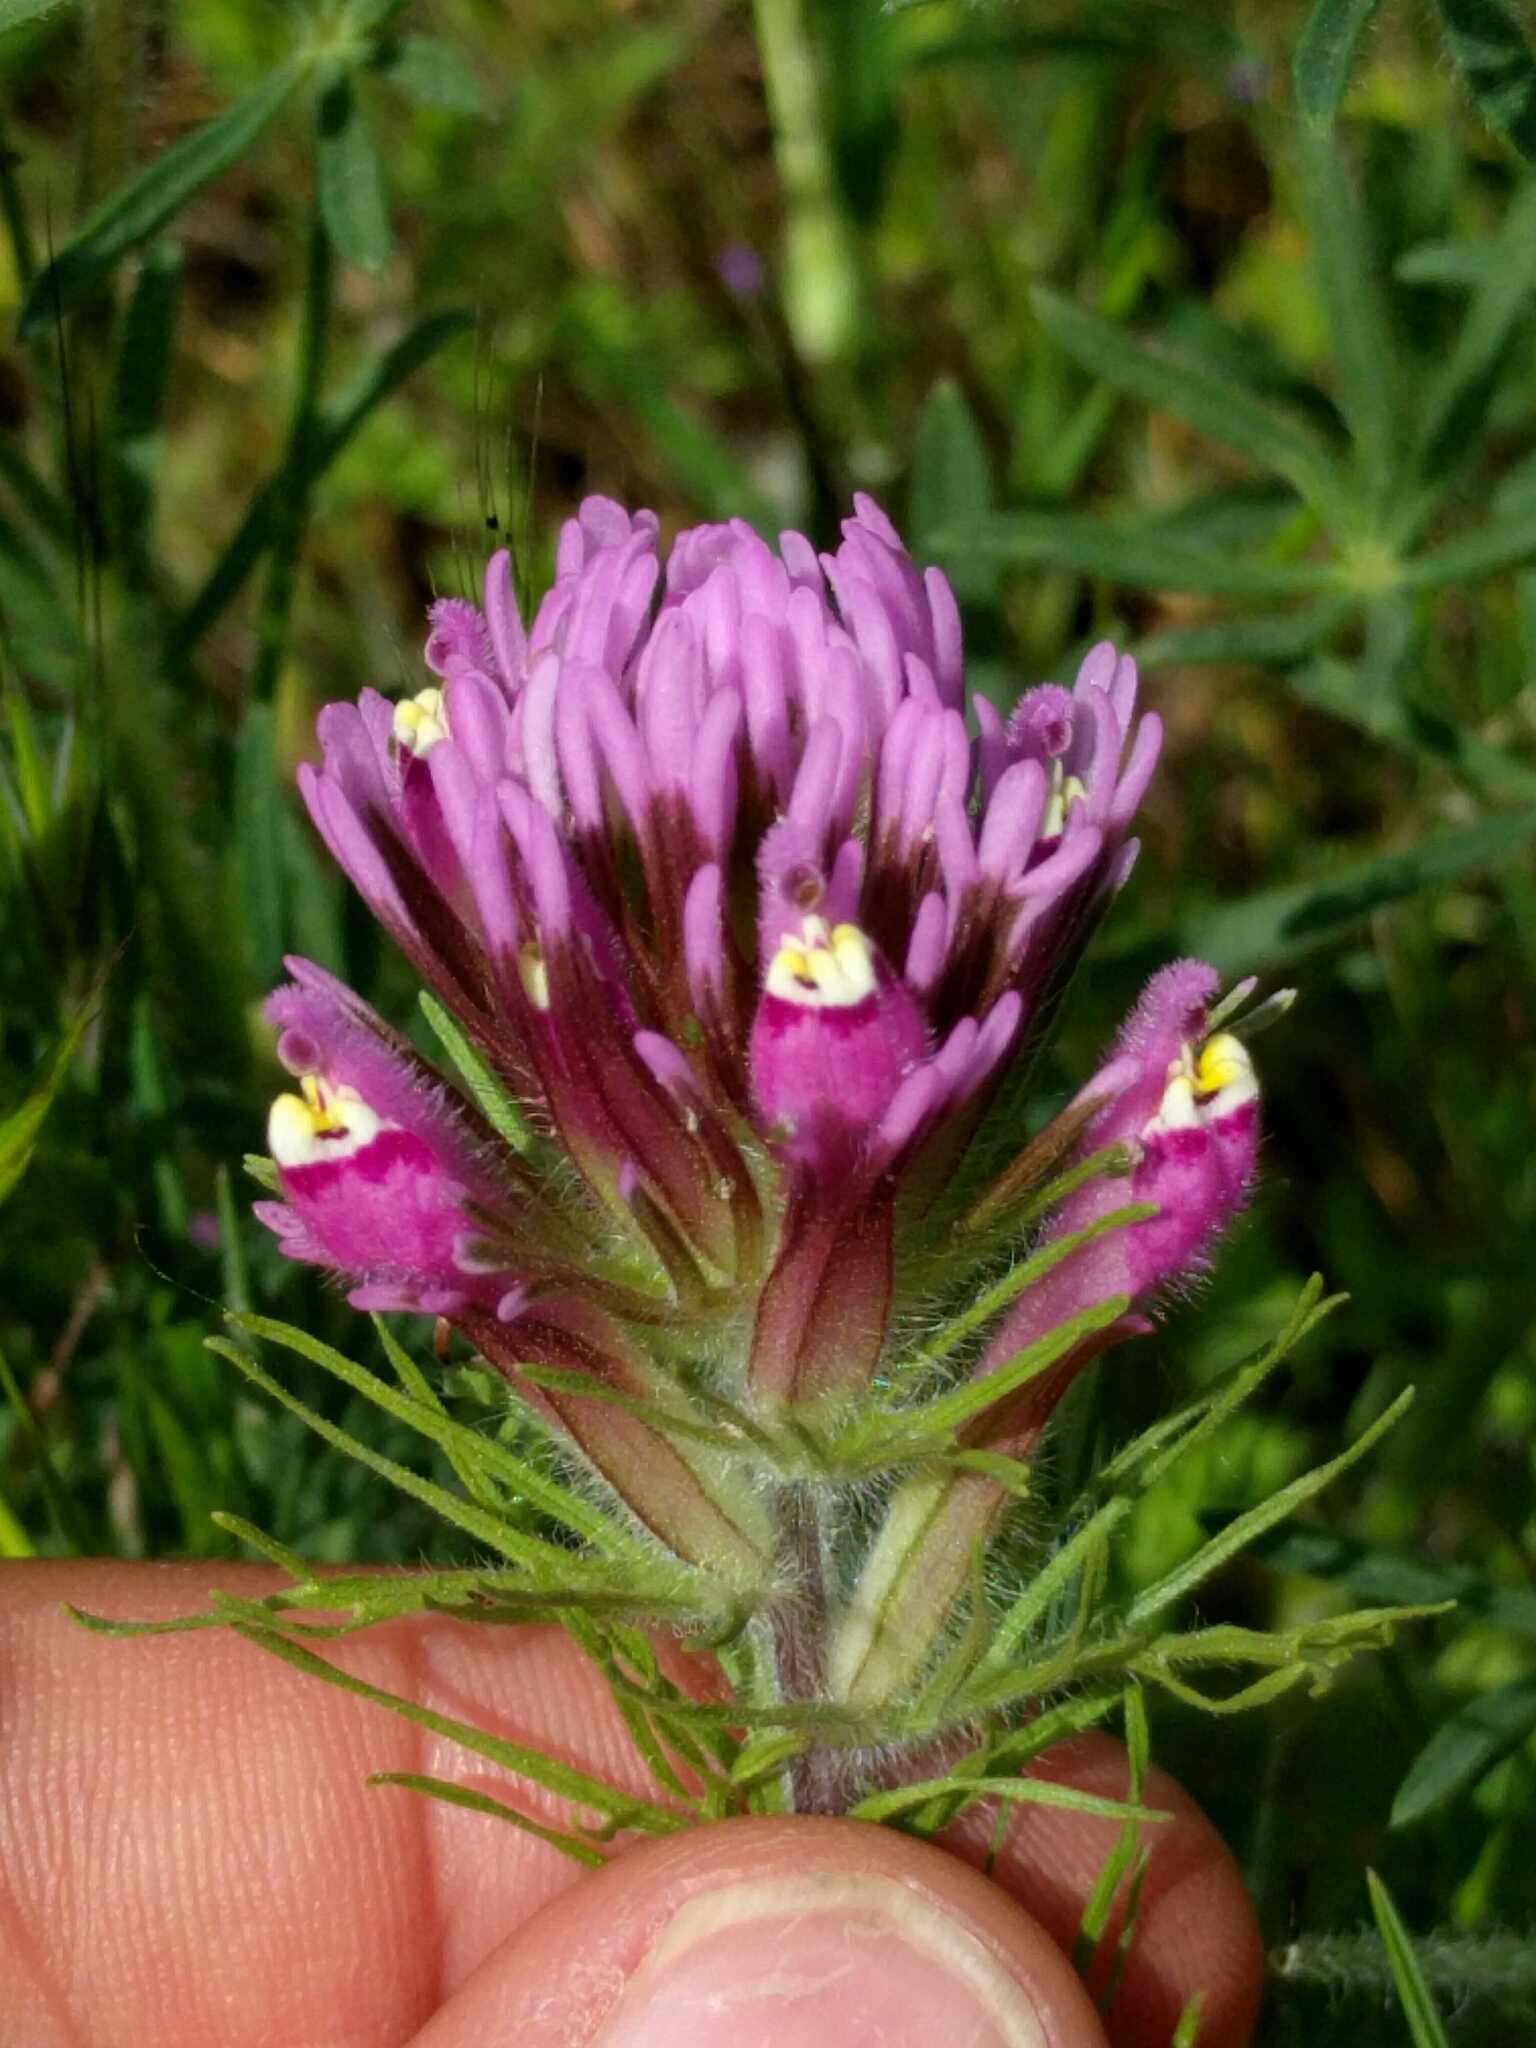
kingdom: Plantae
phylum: Tracheophyta
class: Magnoliopsida
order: Lamiales
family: Orobanchaceae
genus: Castilleja
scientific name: Castilleja exserta
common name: Purple owl-clover
